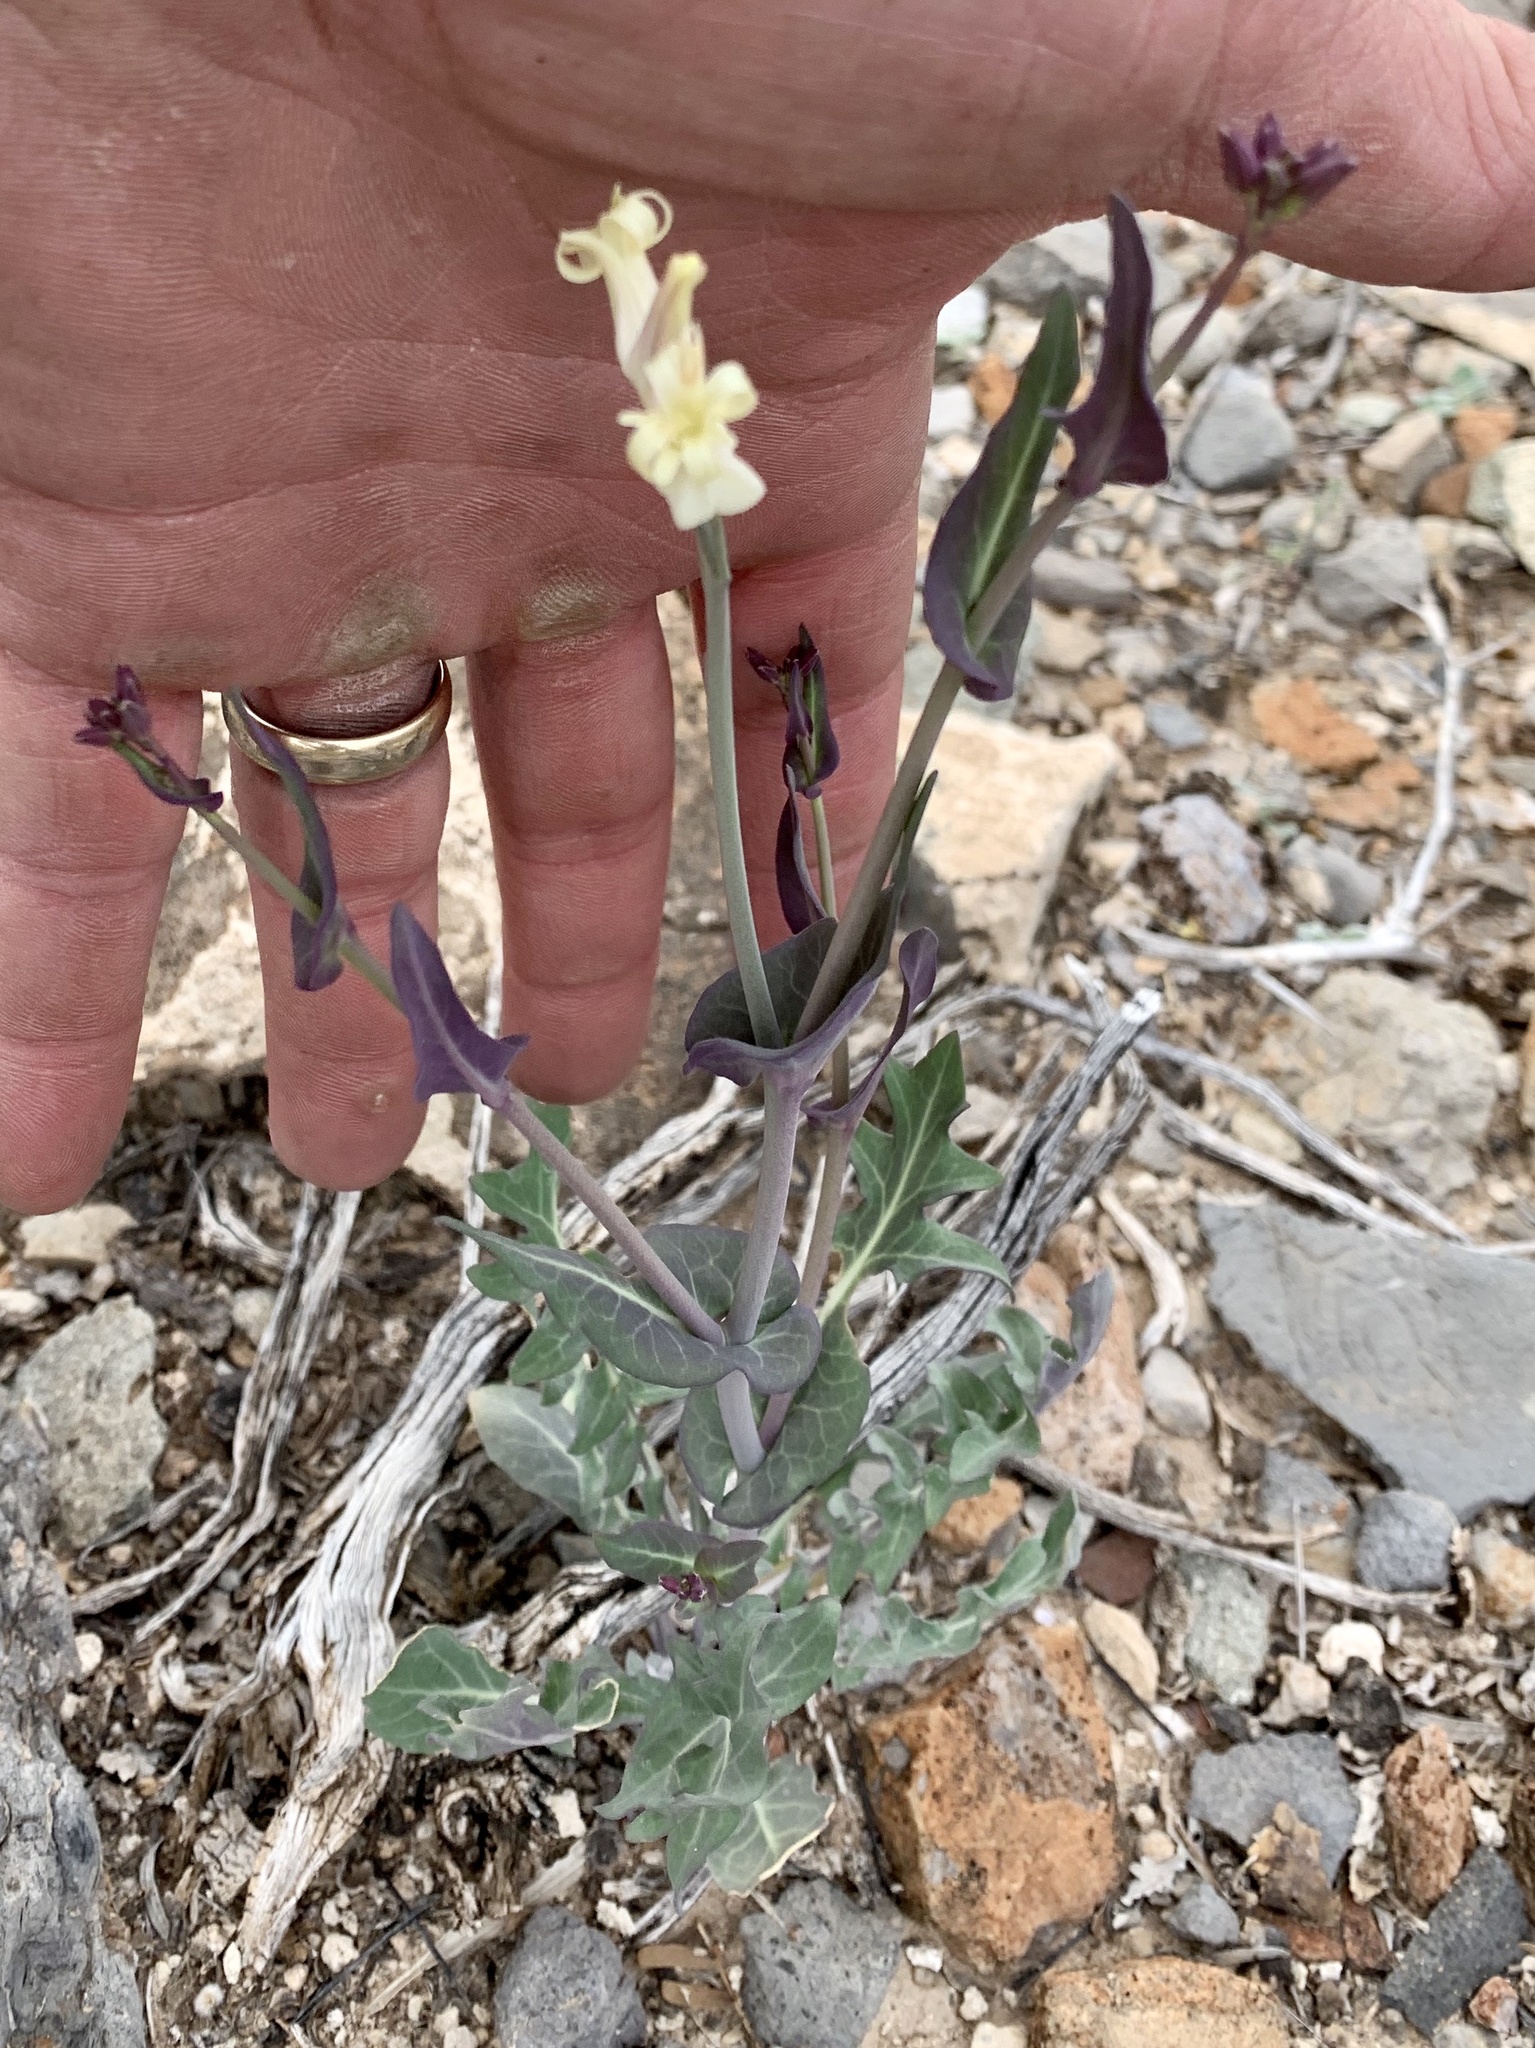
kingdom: Plantae
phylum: Tracheophyta
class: Magnoliopsida
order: Brassicales
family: Brassicaceae
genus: Streptanthus
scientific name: Streptanthus carinatus
